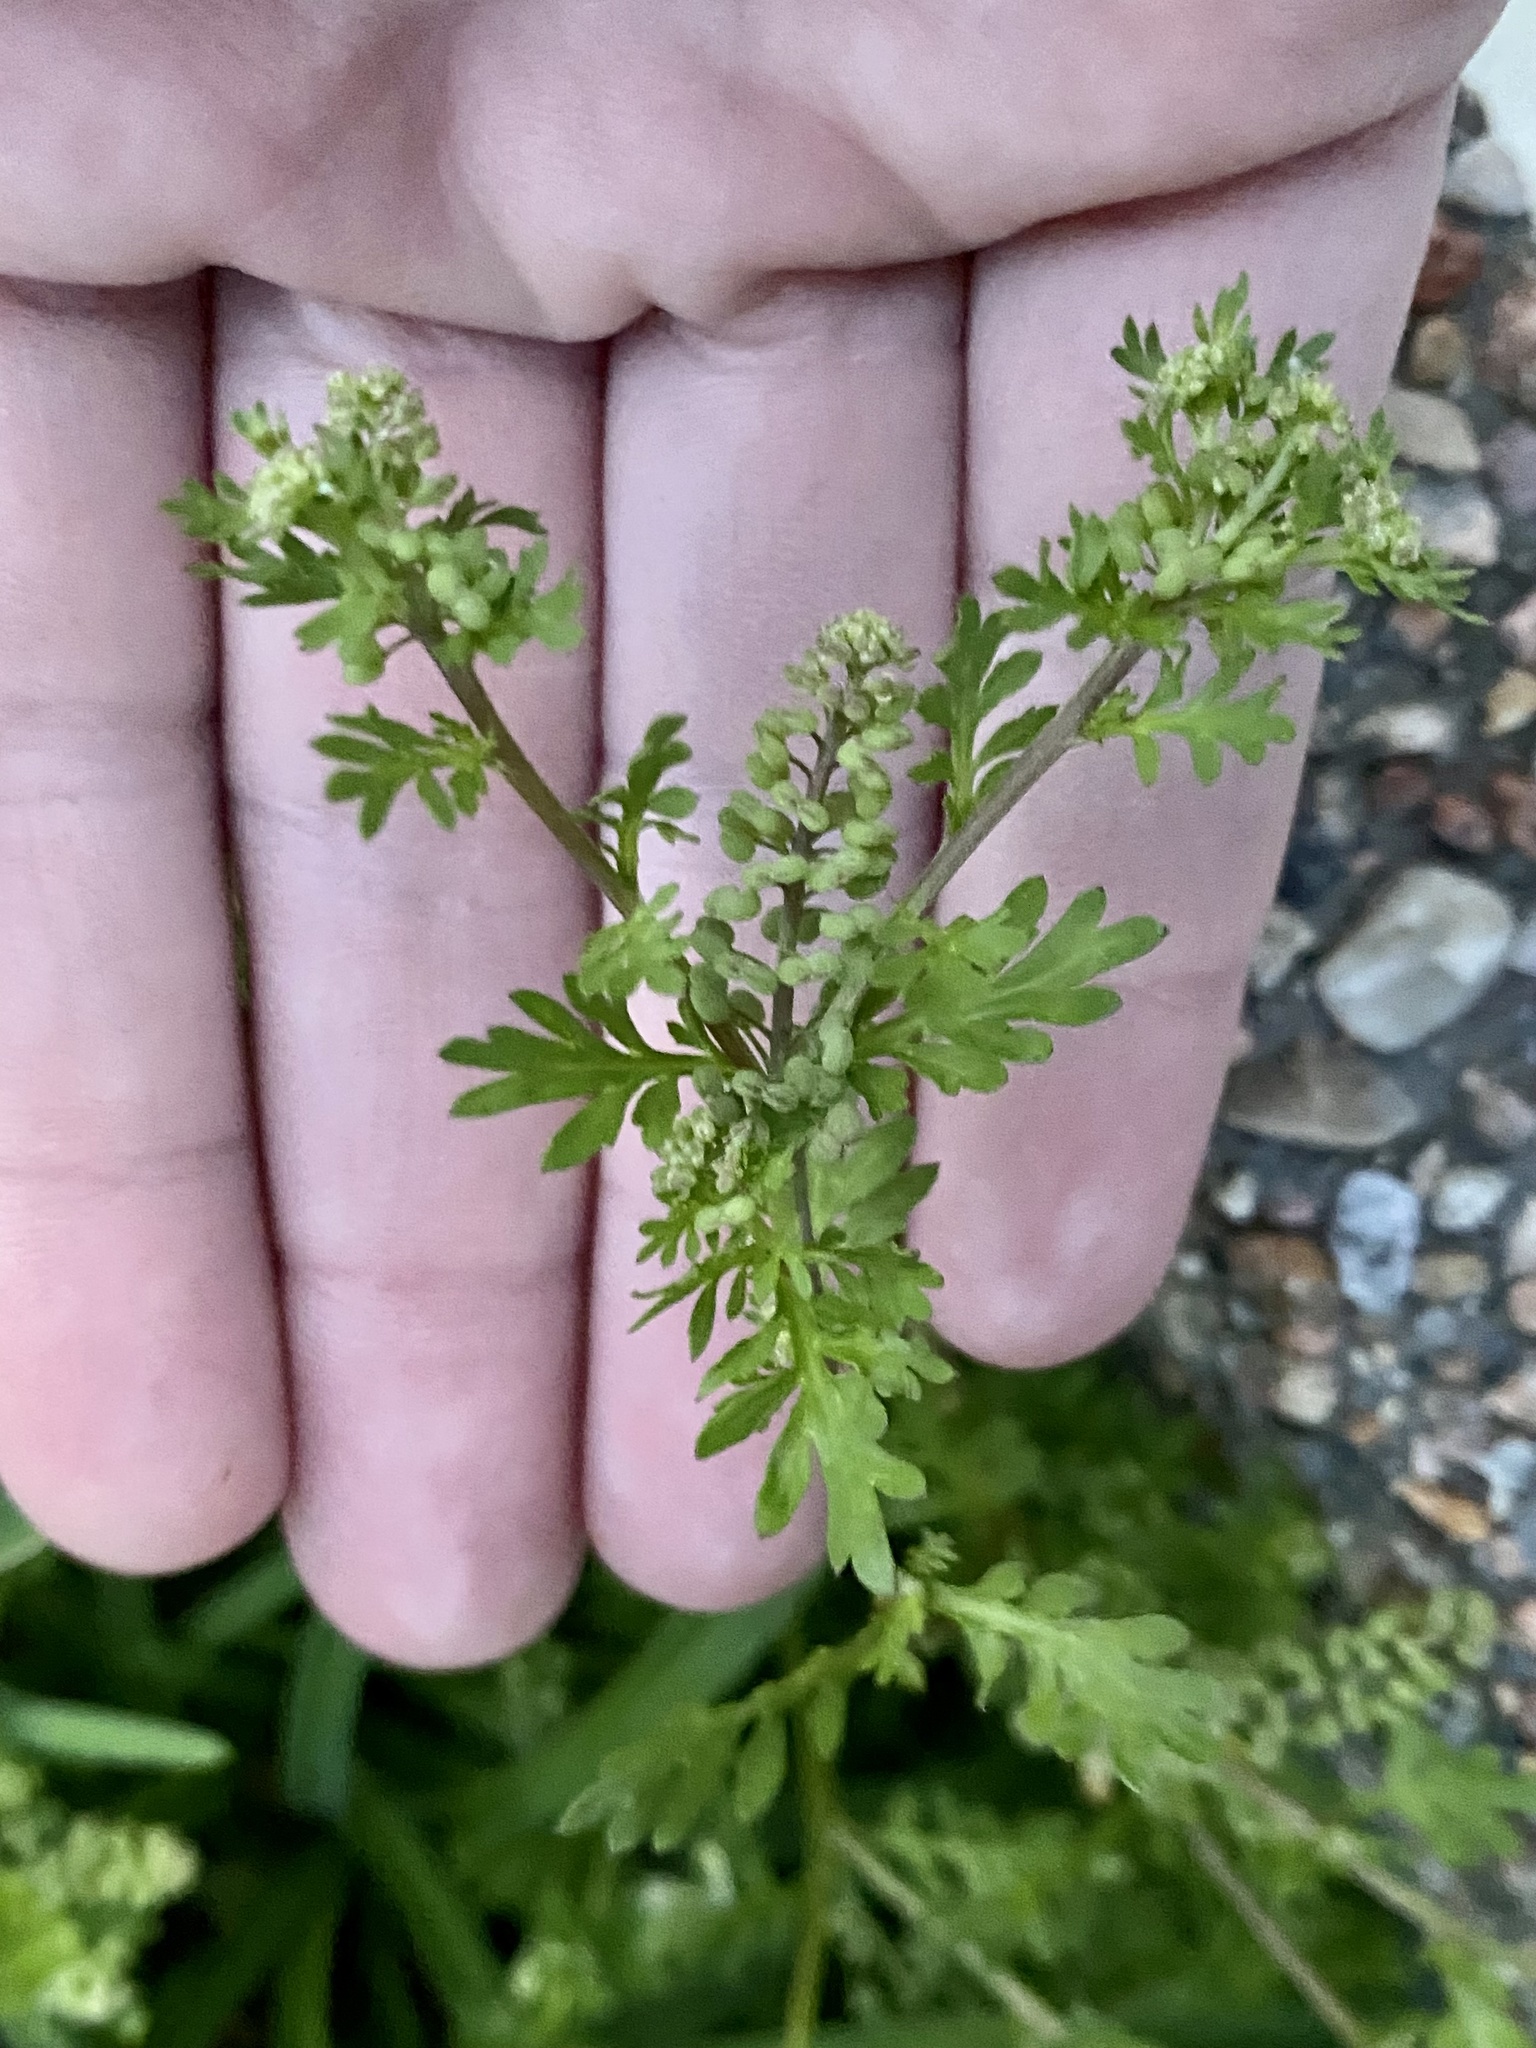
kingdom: Plantae
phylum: Tracheophyta
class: Magnoliopsida
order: Brassicales
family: Brassicaceae
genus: Lepidium
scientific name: Lepidium didymum
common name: Lesser swinecress
